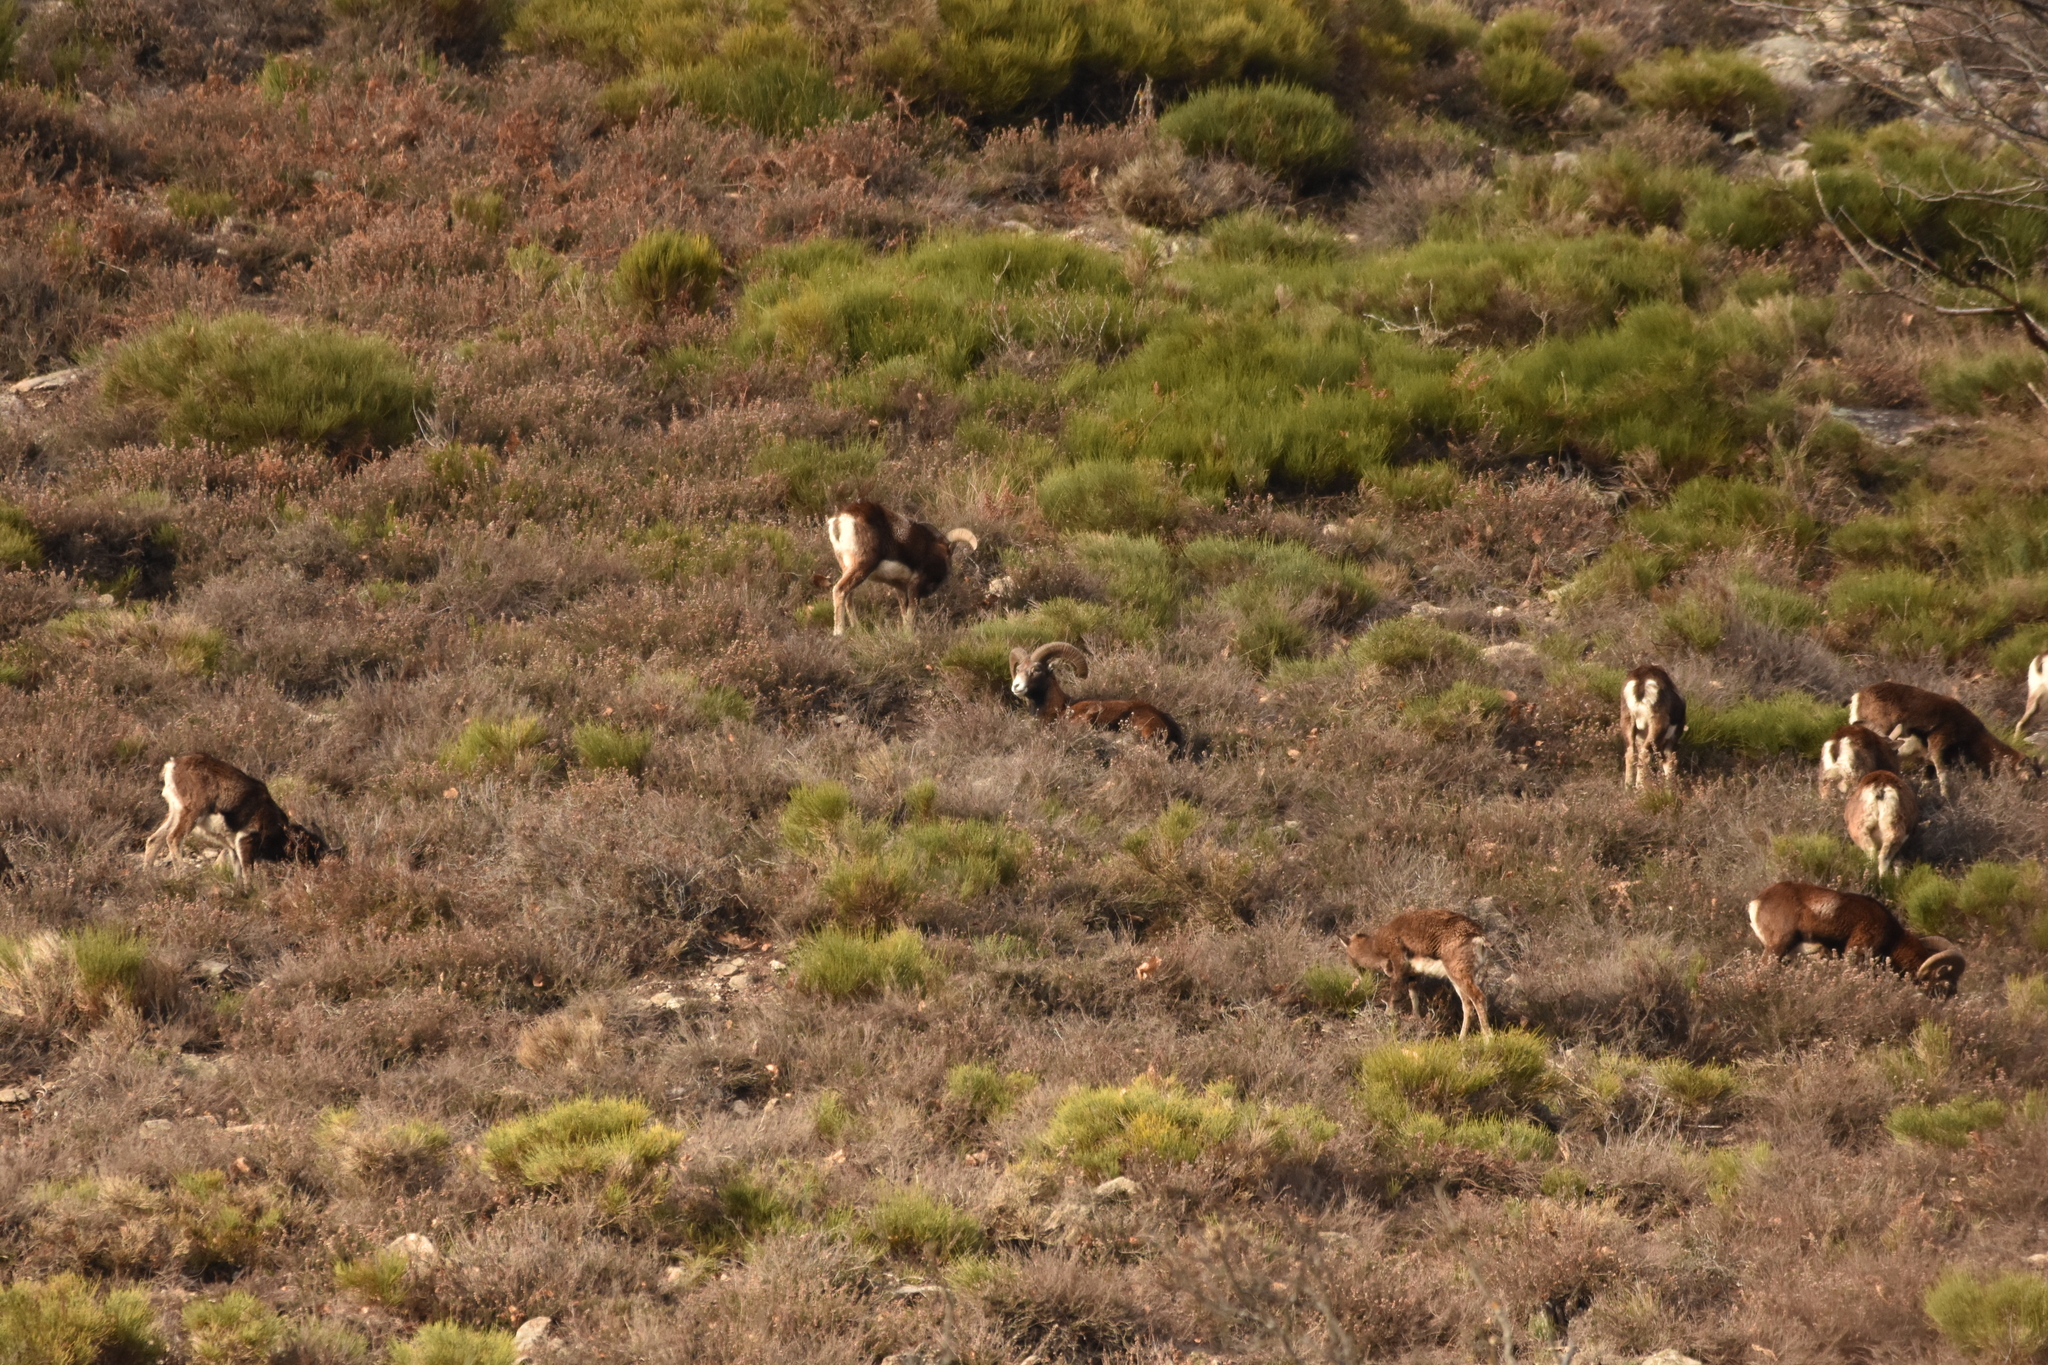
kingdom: Animalia
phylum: Chordata
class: Mammalia
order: Artiodactyla
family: Bovidae
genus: Ovis
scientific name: Ovis aries
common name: Domestic sheep
